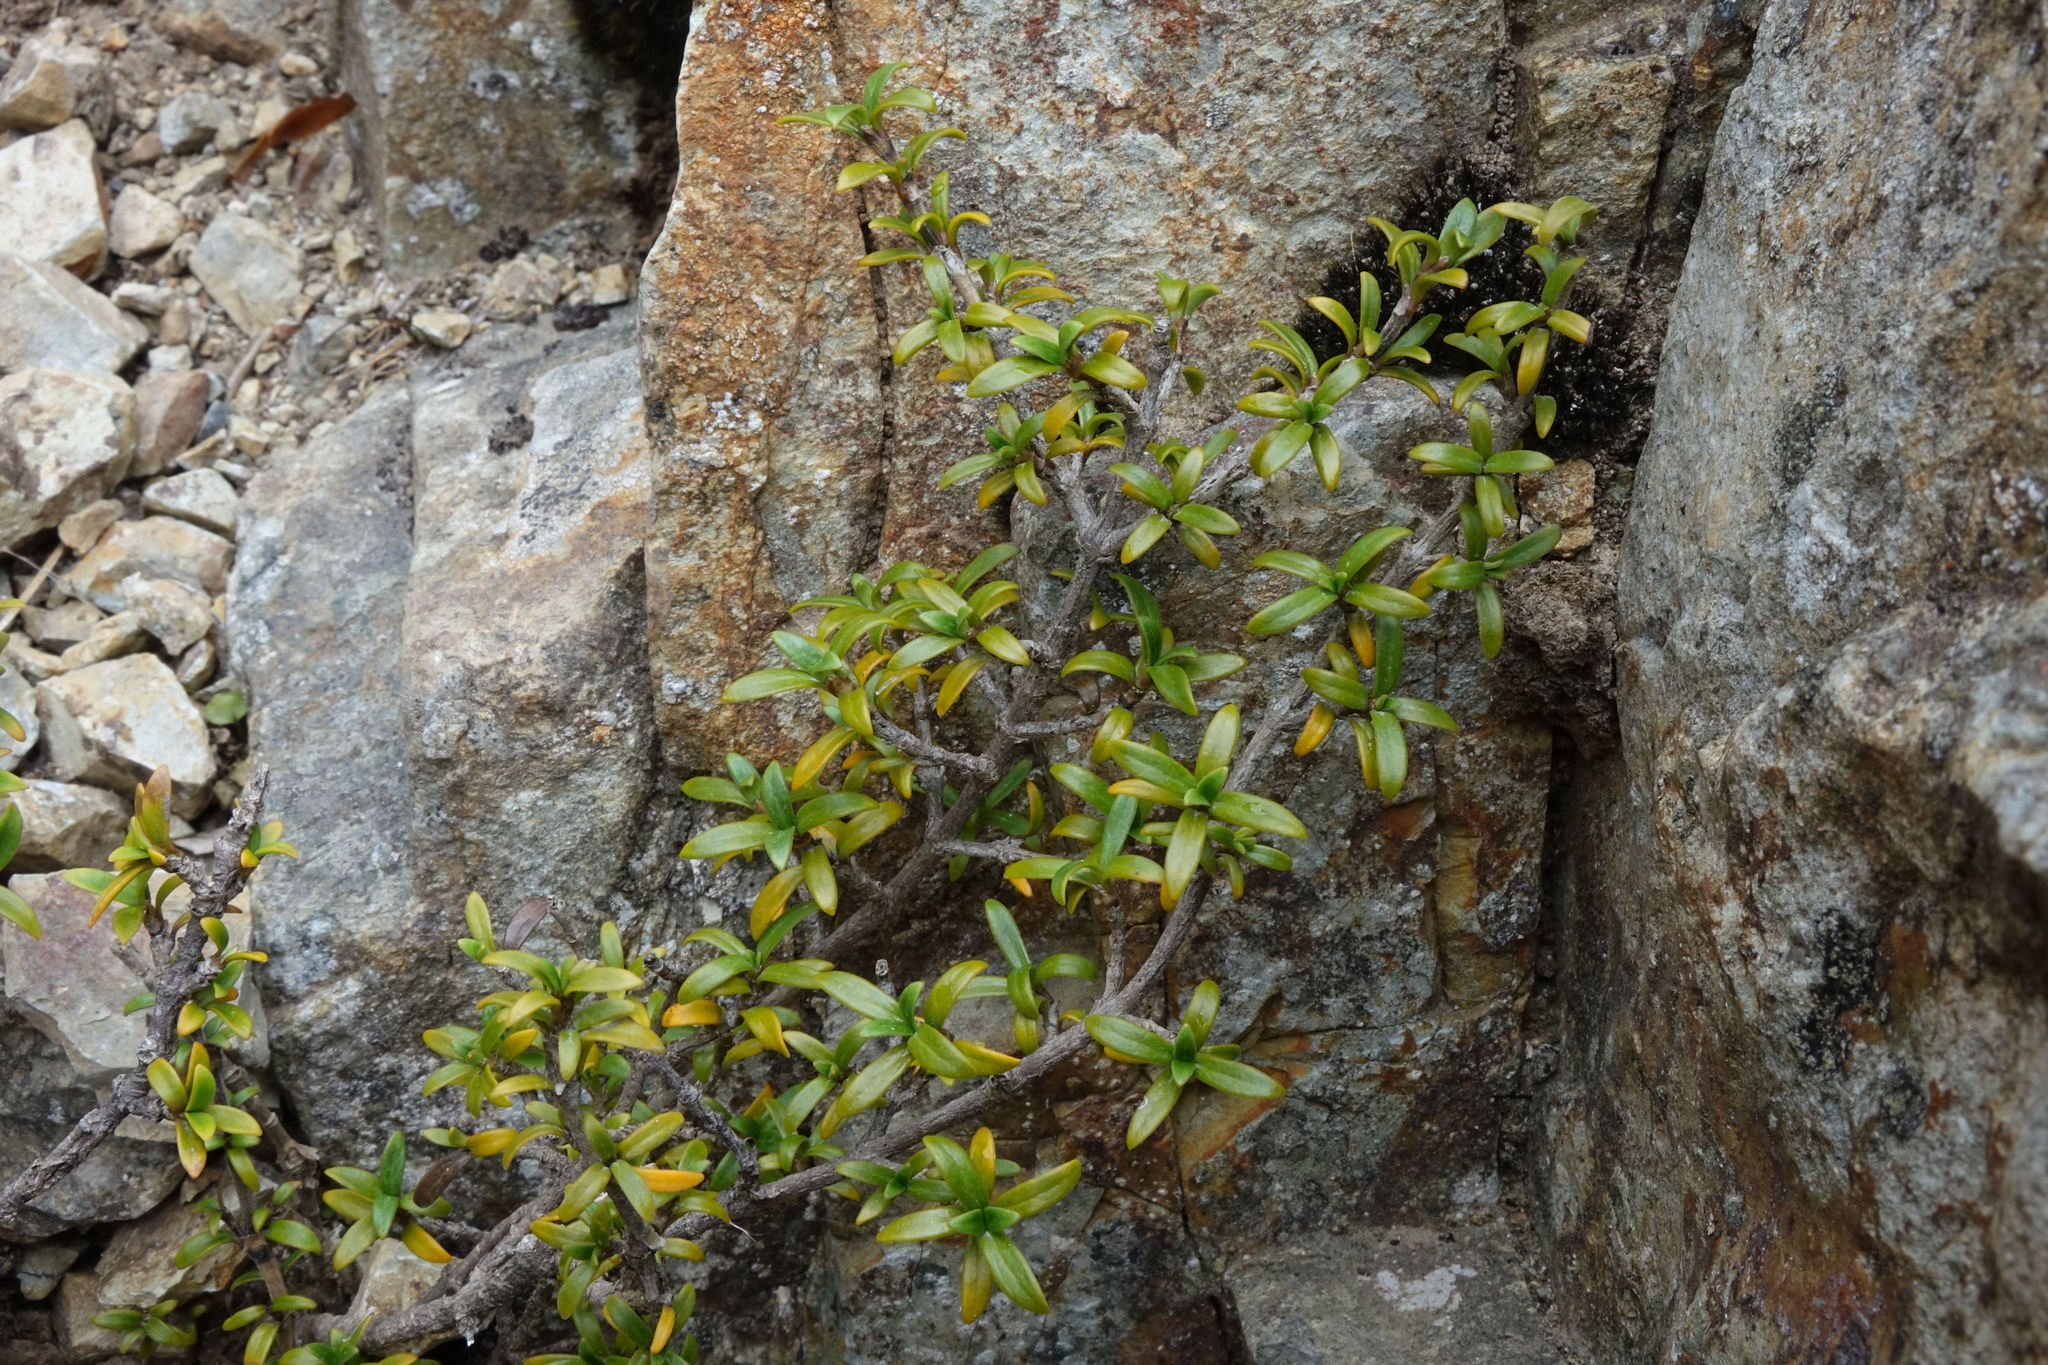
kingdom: Plantae
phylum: Tracheophyta
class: Magnoliopsida
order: Gentianales
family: Rubiaceae
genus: Coprosma
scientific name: Coprosma pseudocuneata
